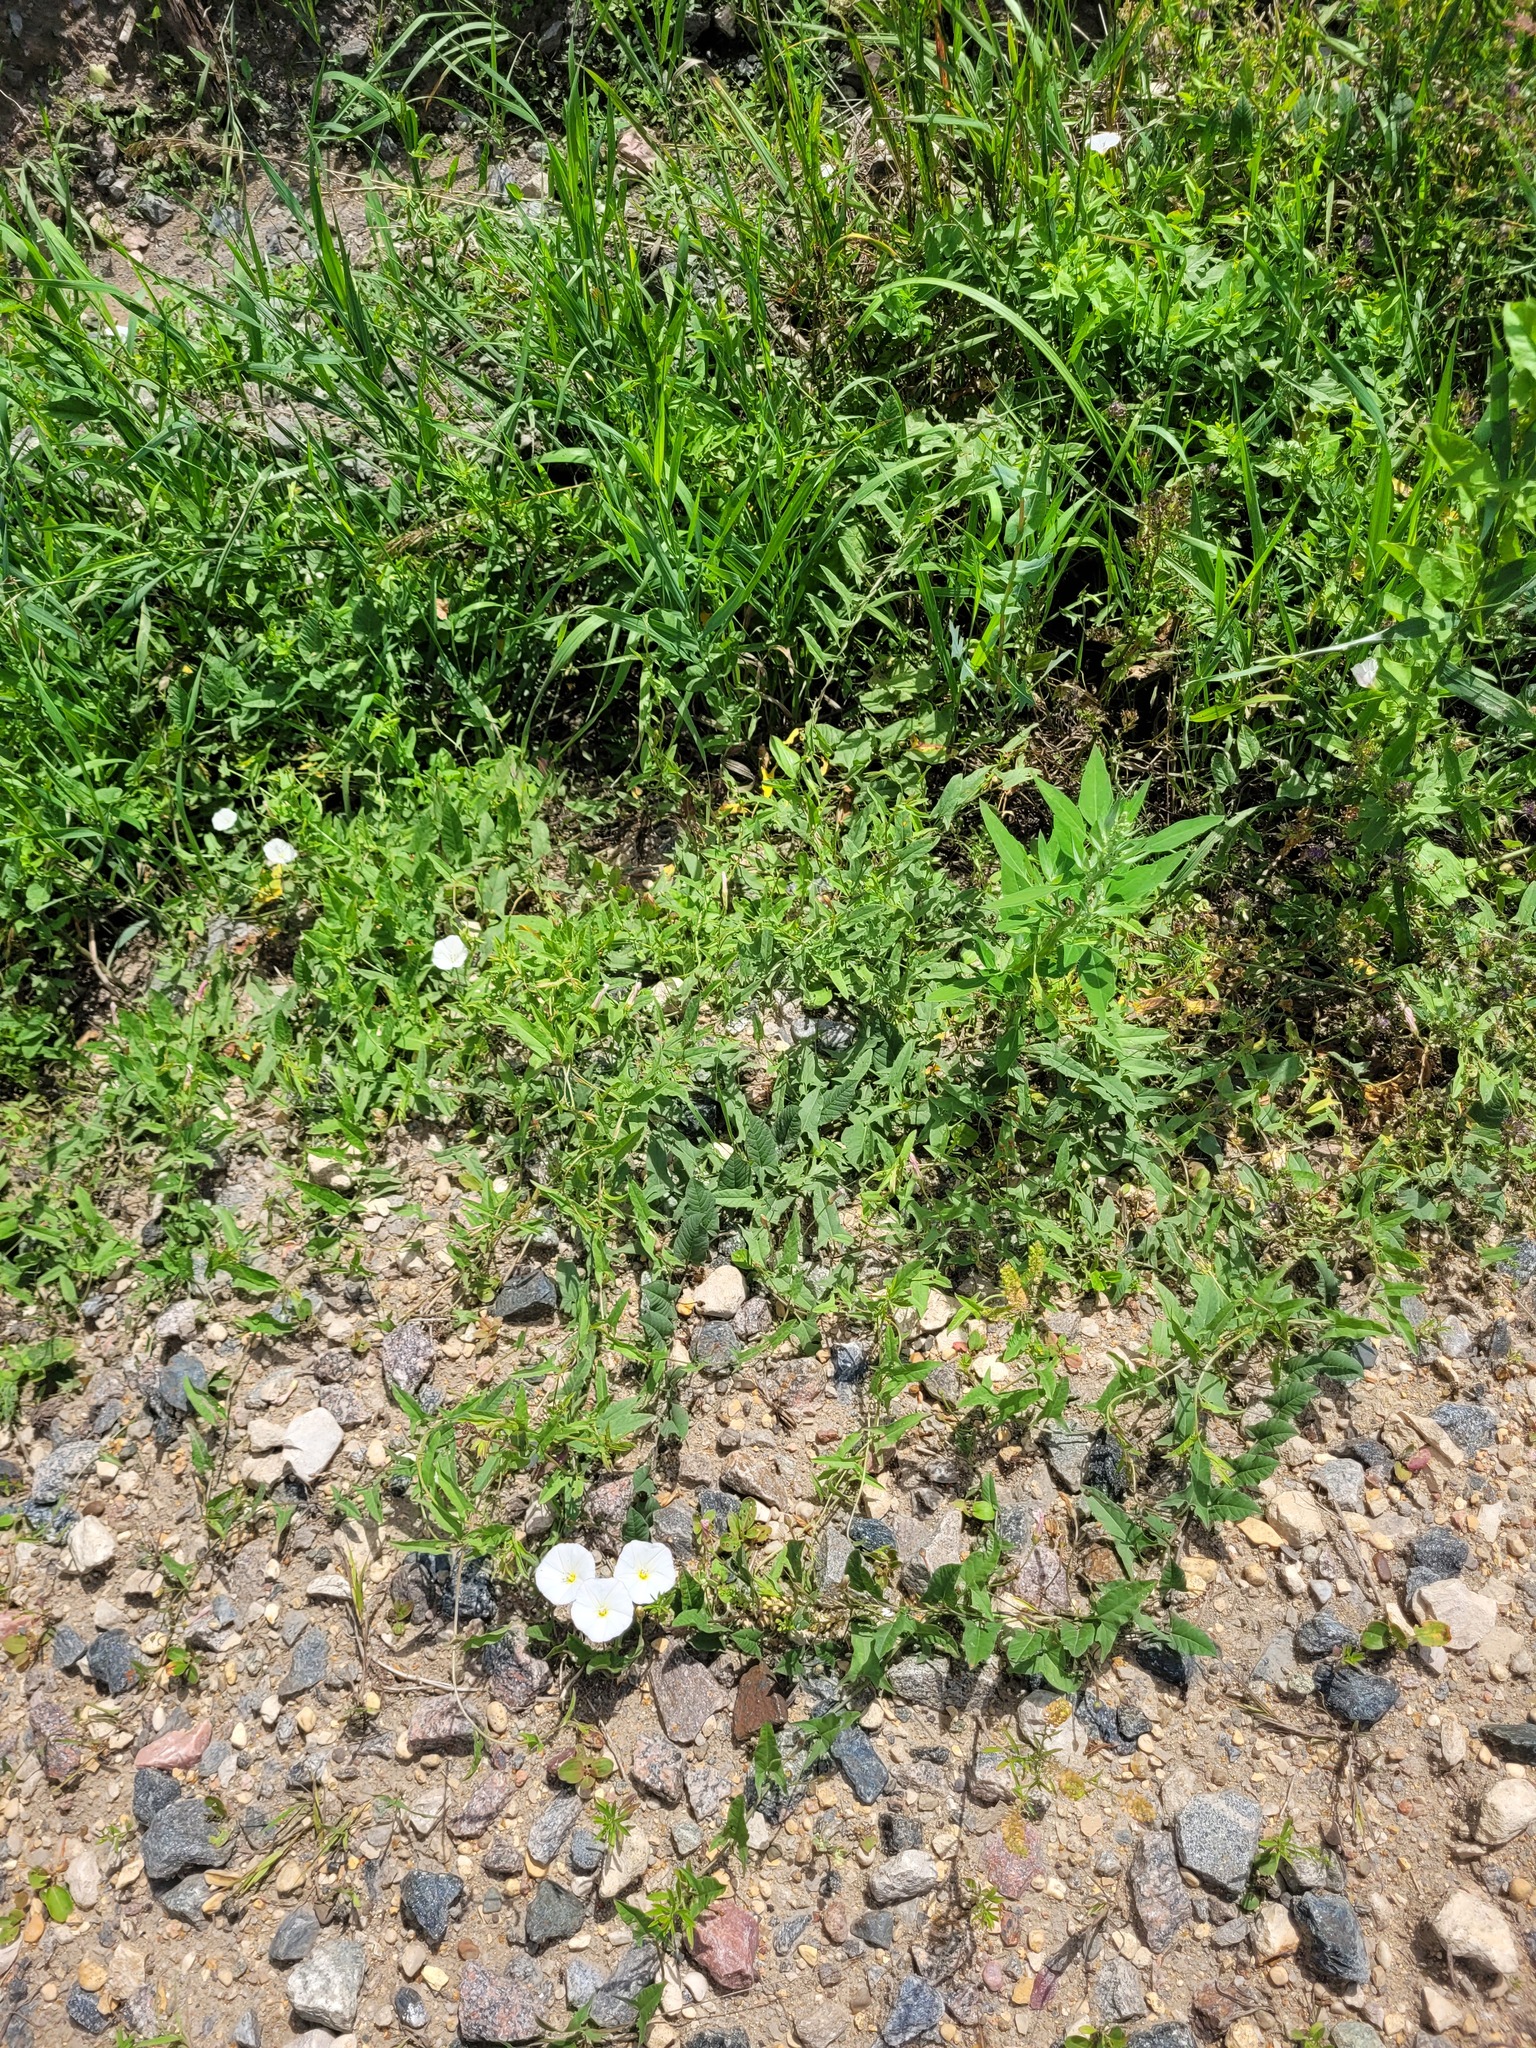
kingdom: Plantae
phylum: Tracheophyta
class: Magnoliopsida
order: Solanales
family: Convolvulaceae
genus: Convolvulus
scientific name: Convolvulus arvensis
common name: Field bindweed
